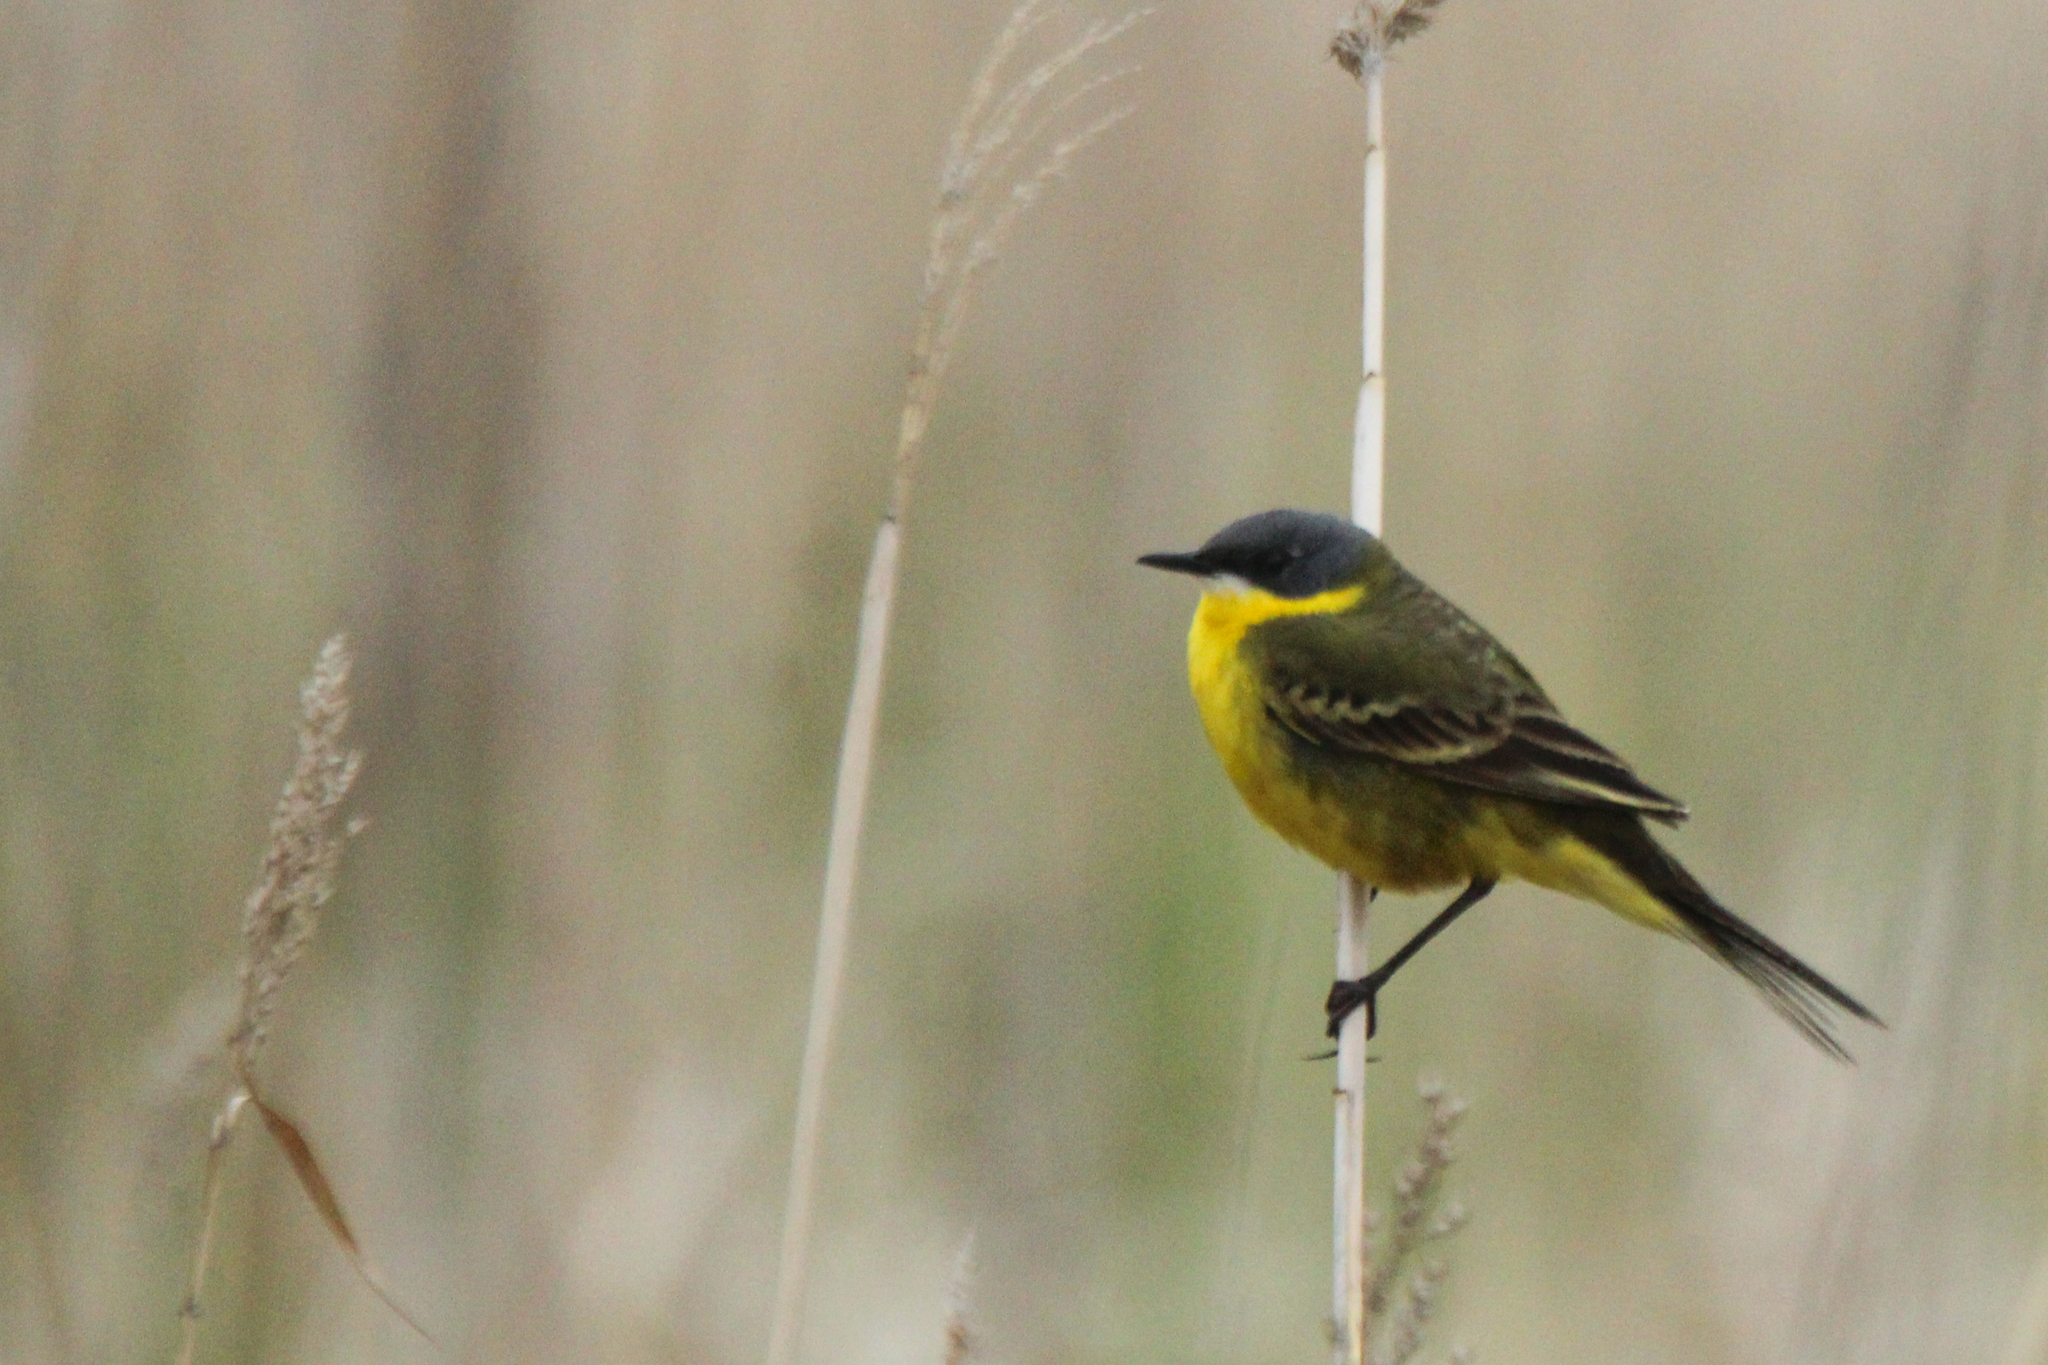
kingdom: Animalia
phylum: Chordata
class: Aves
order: Passeriformes
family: Motacillidae
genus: Motacilla
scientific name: Motacilla tschutschensis
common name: Eastern yellow wagtail
